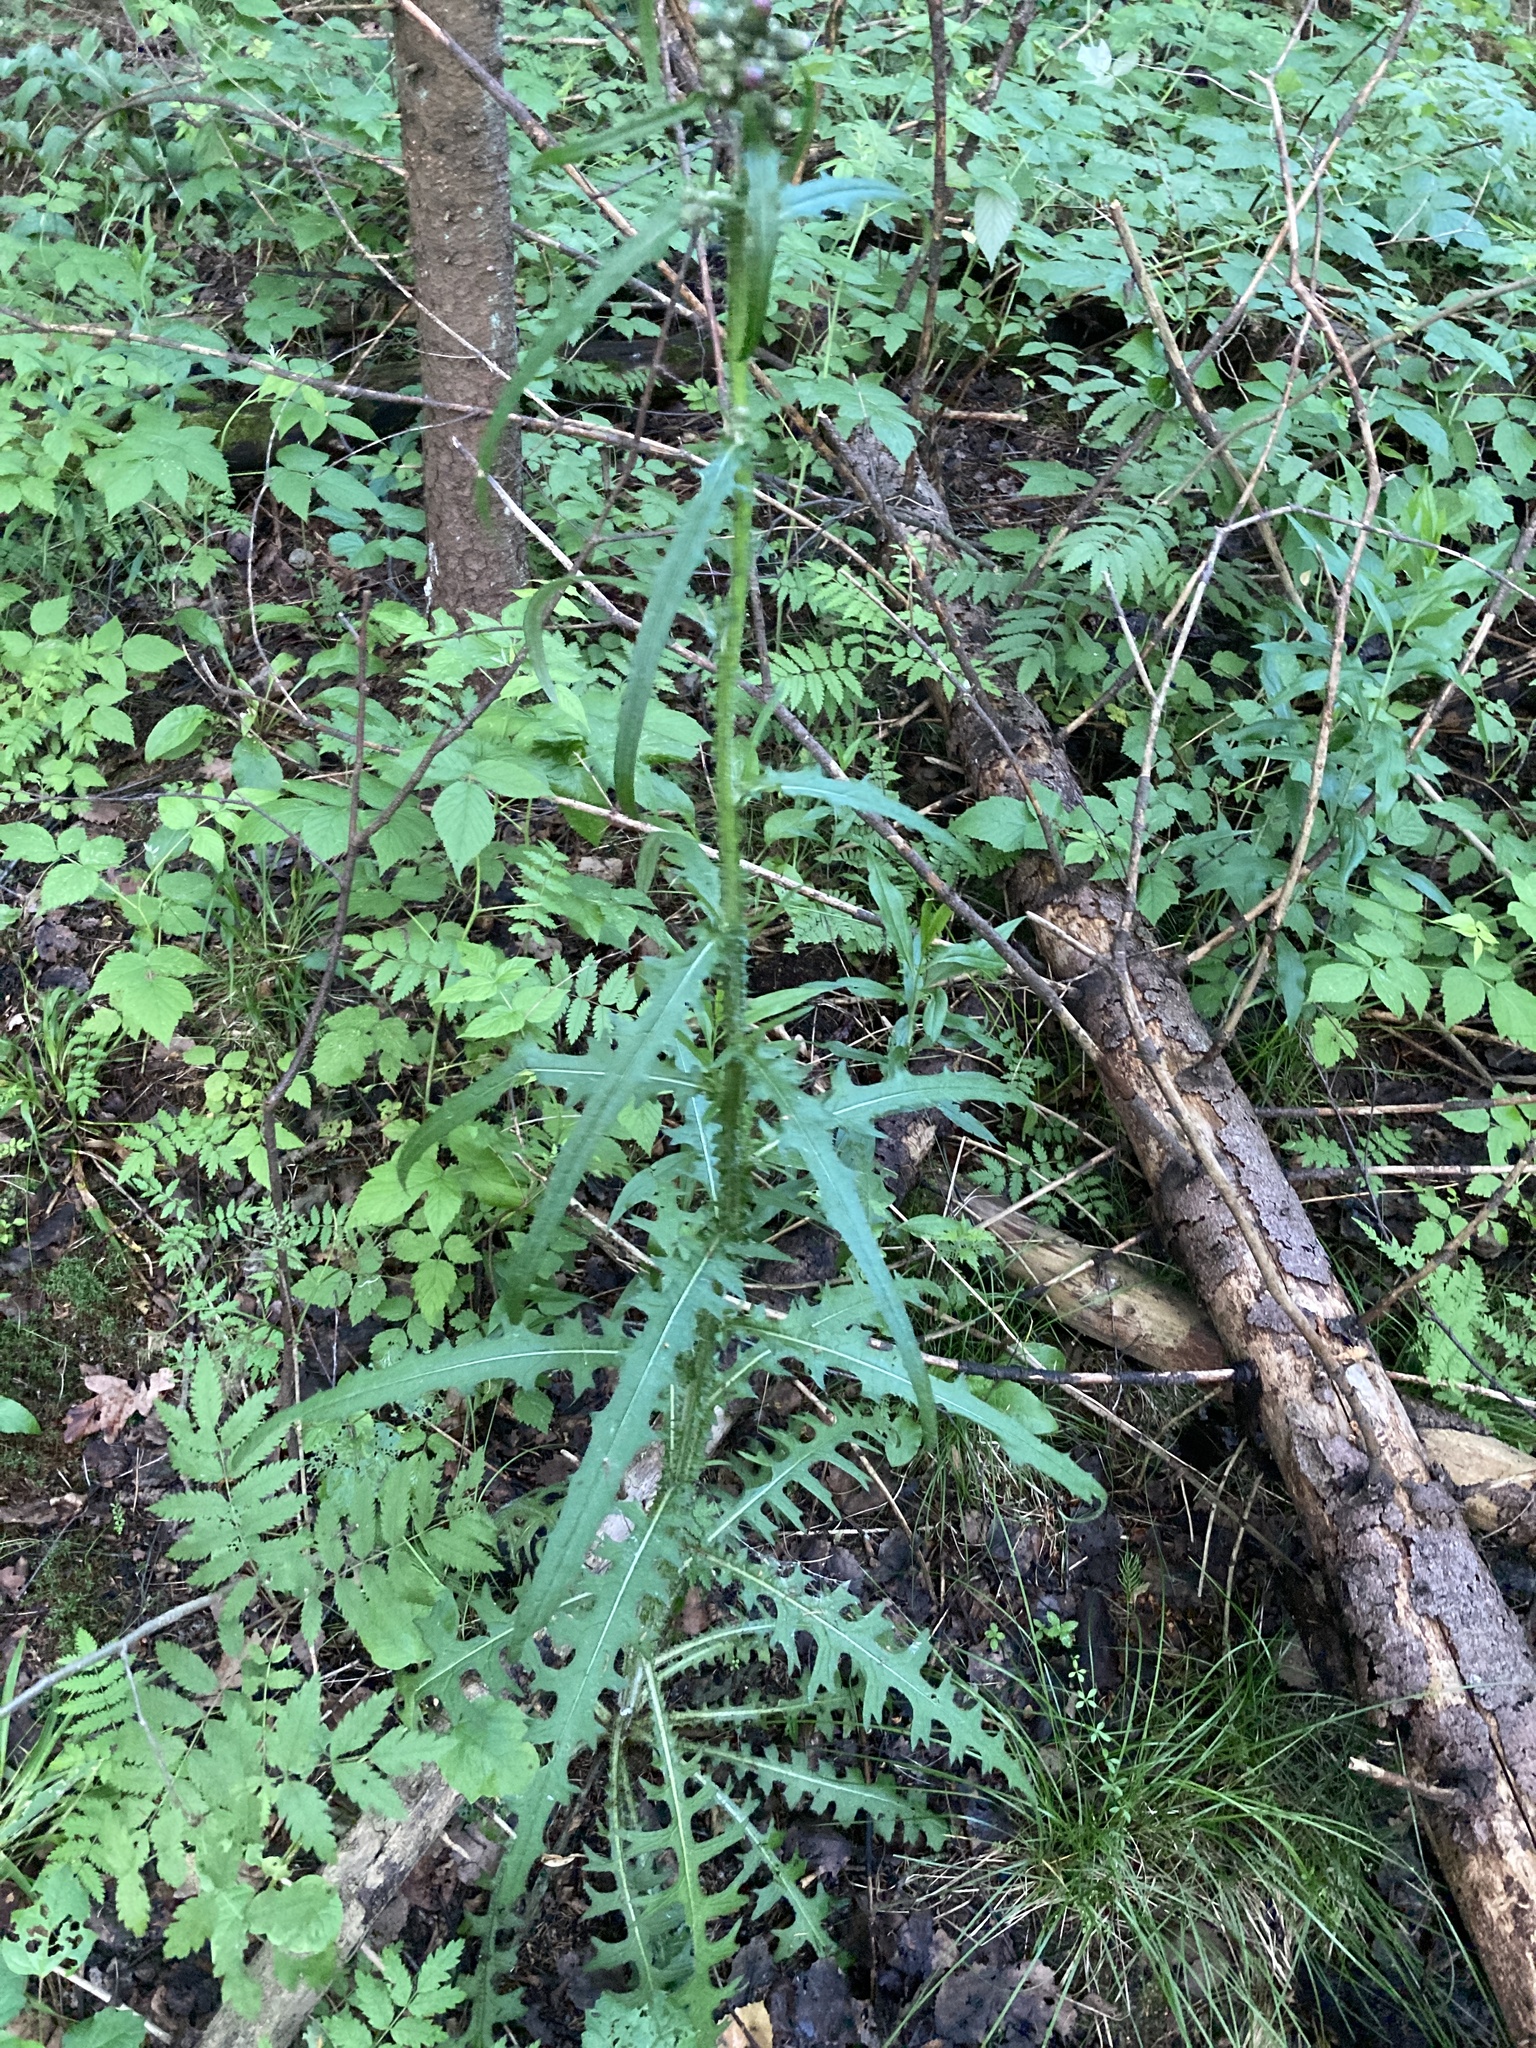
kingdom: Plantae
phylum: Tracheophyta
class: Magnoliopsida
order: Asterales
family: Asteraceae
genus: Cirsium
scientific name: Cirsium palustre
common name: Marsh thistle
